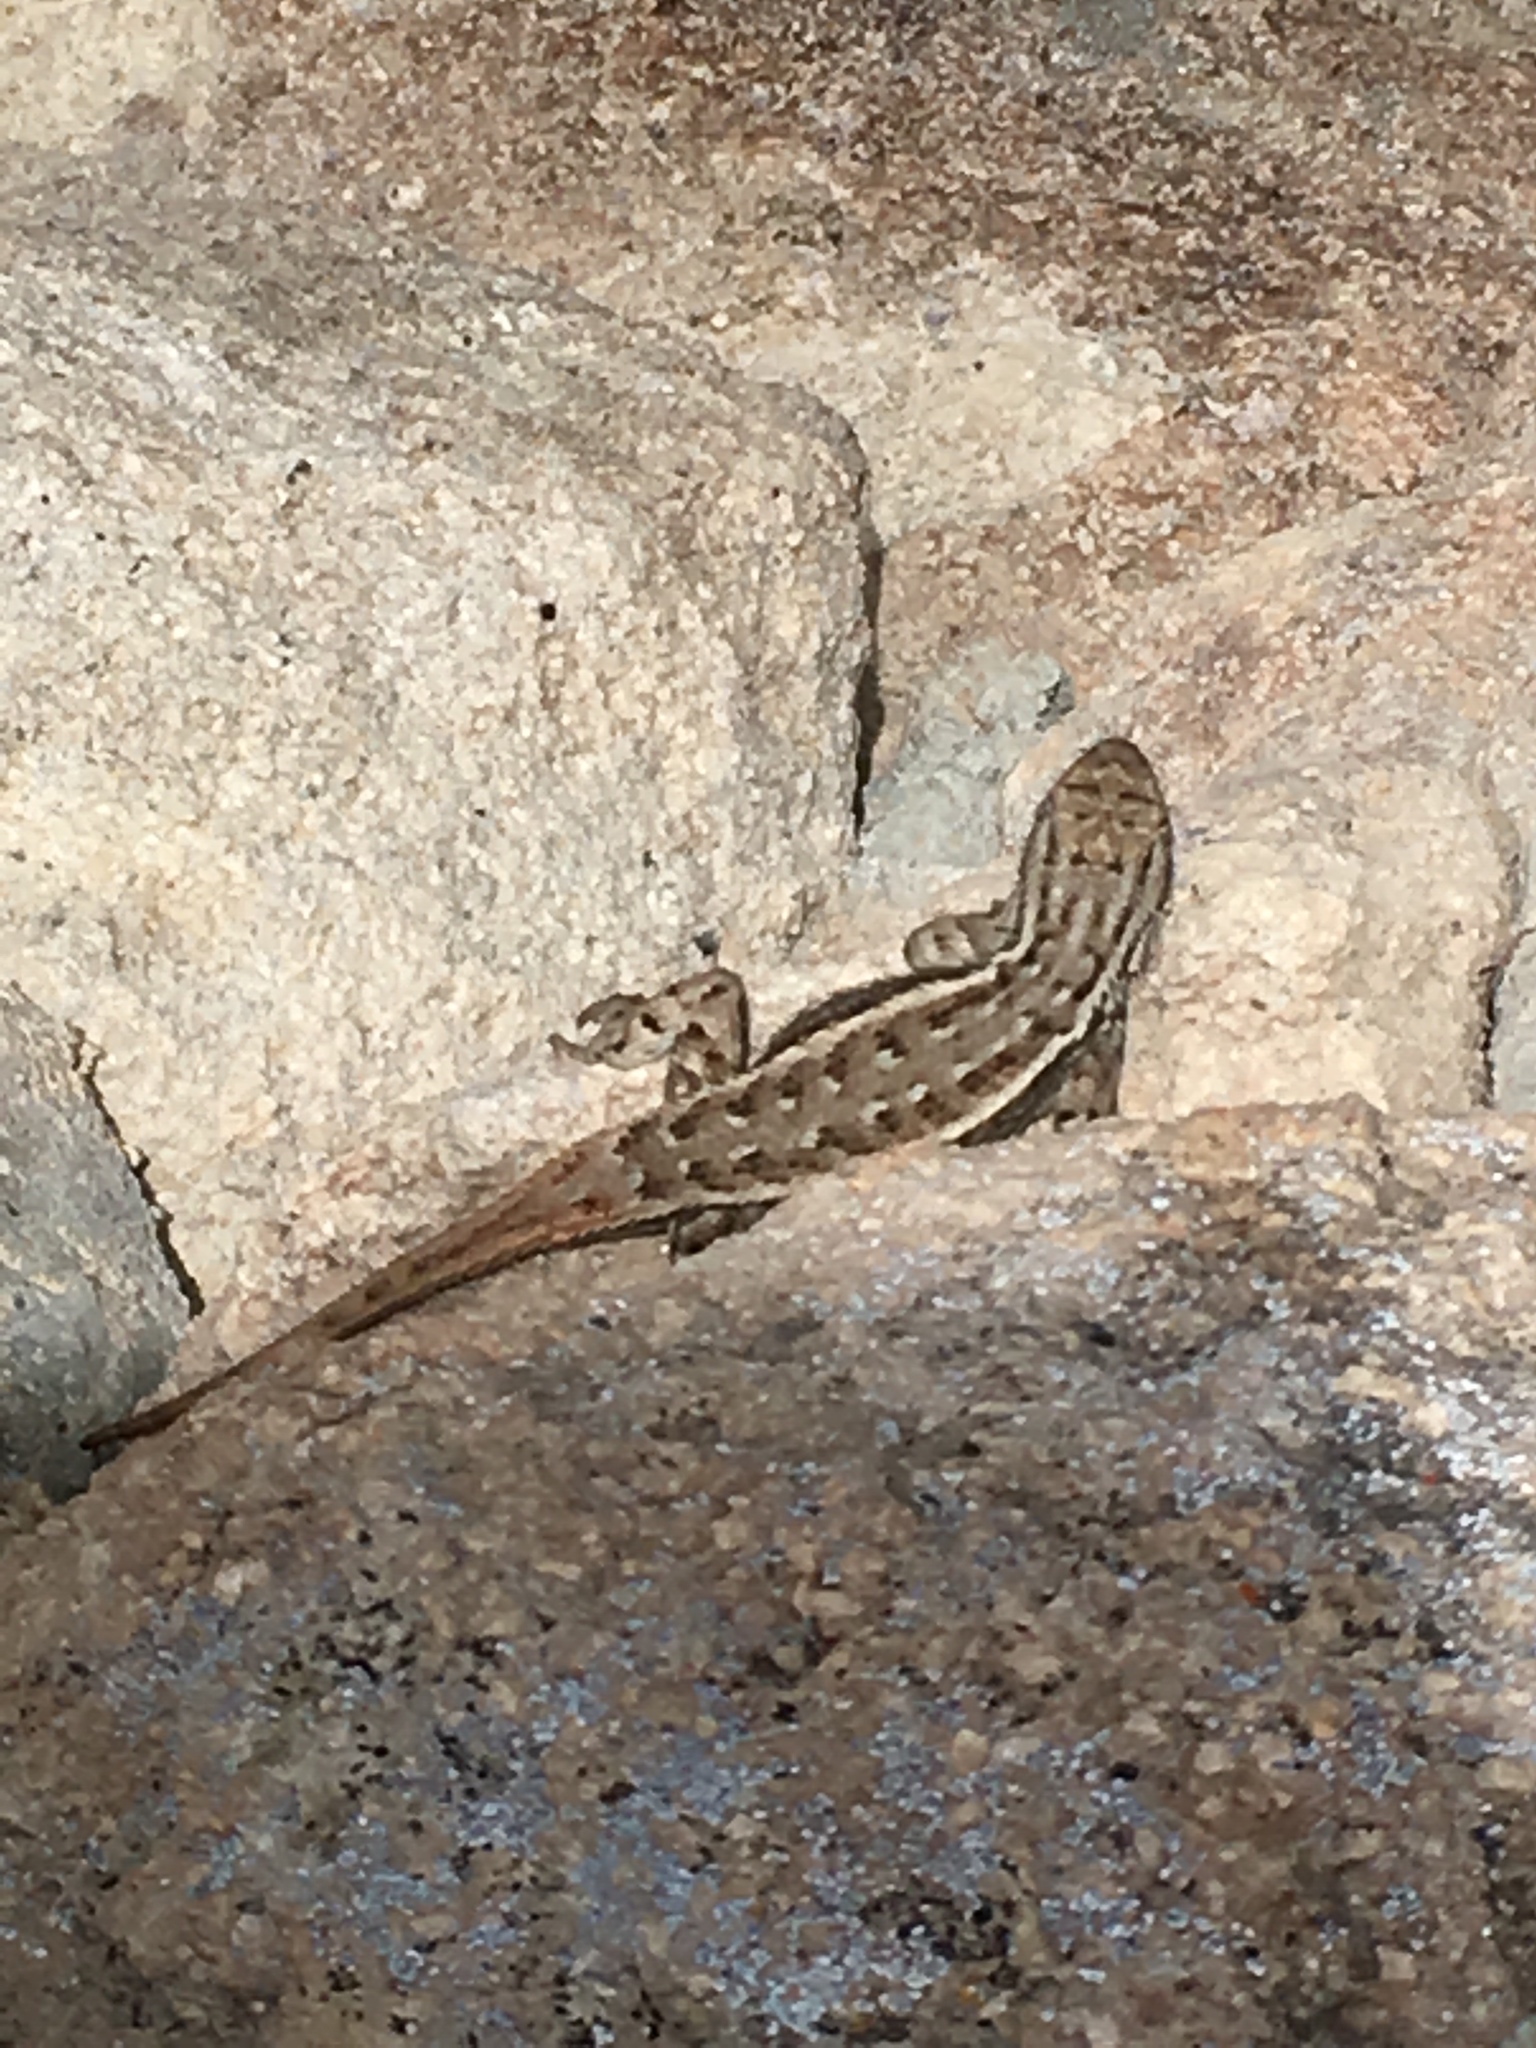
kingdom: Animalia
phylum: Chordata
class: Squamata
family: Phrynosomatidae
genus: Sceloporus
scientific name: Sceloporus cowlesi
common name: White sands prairie lizard
